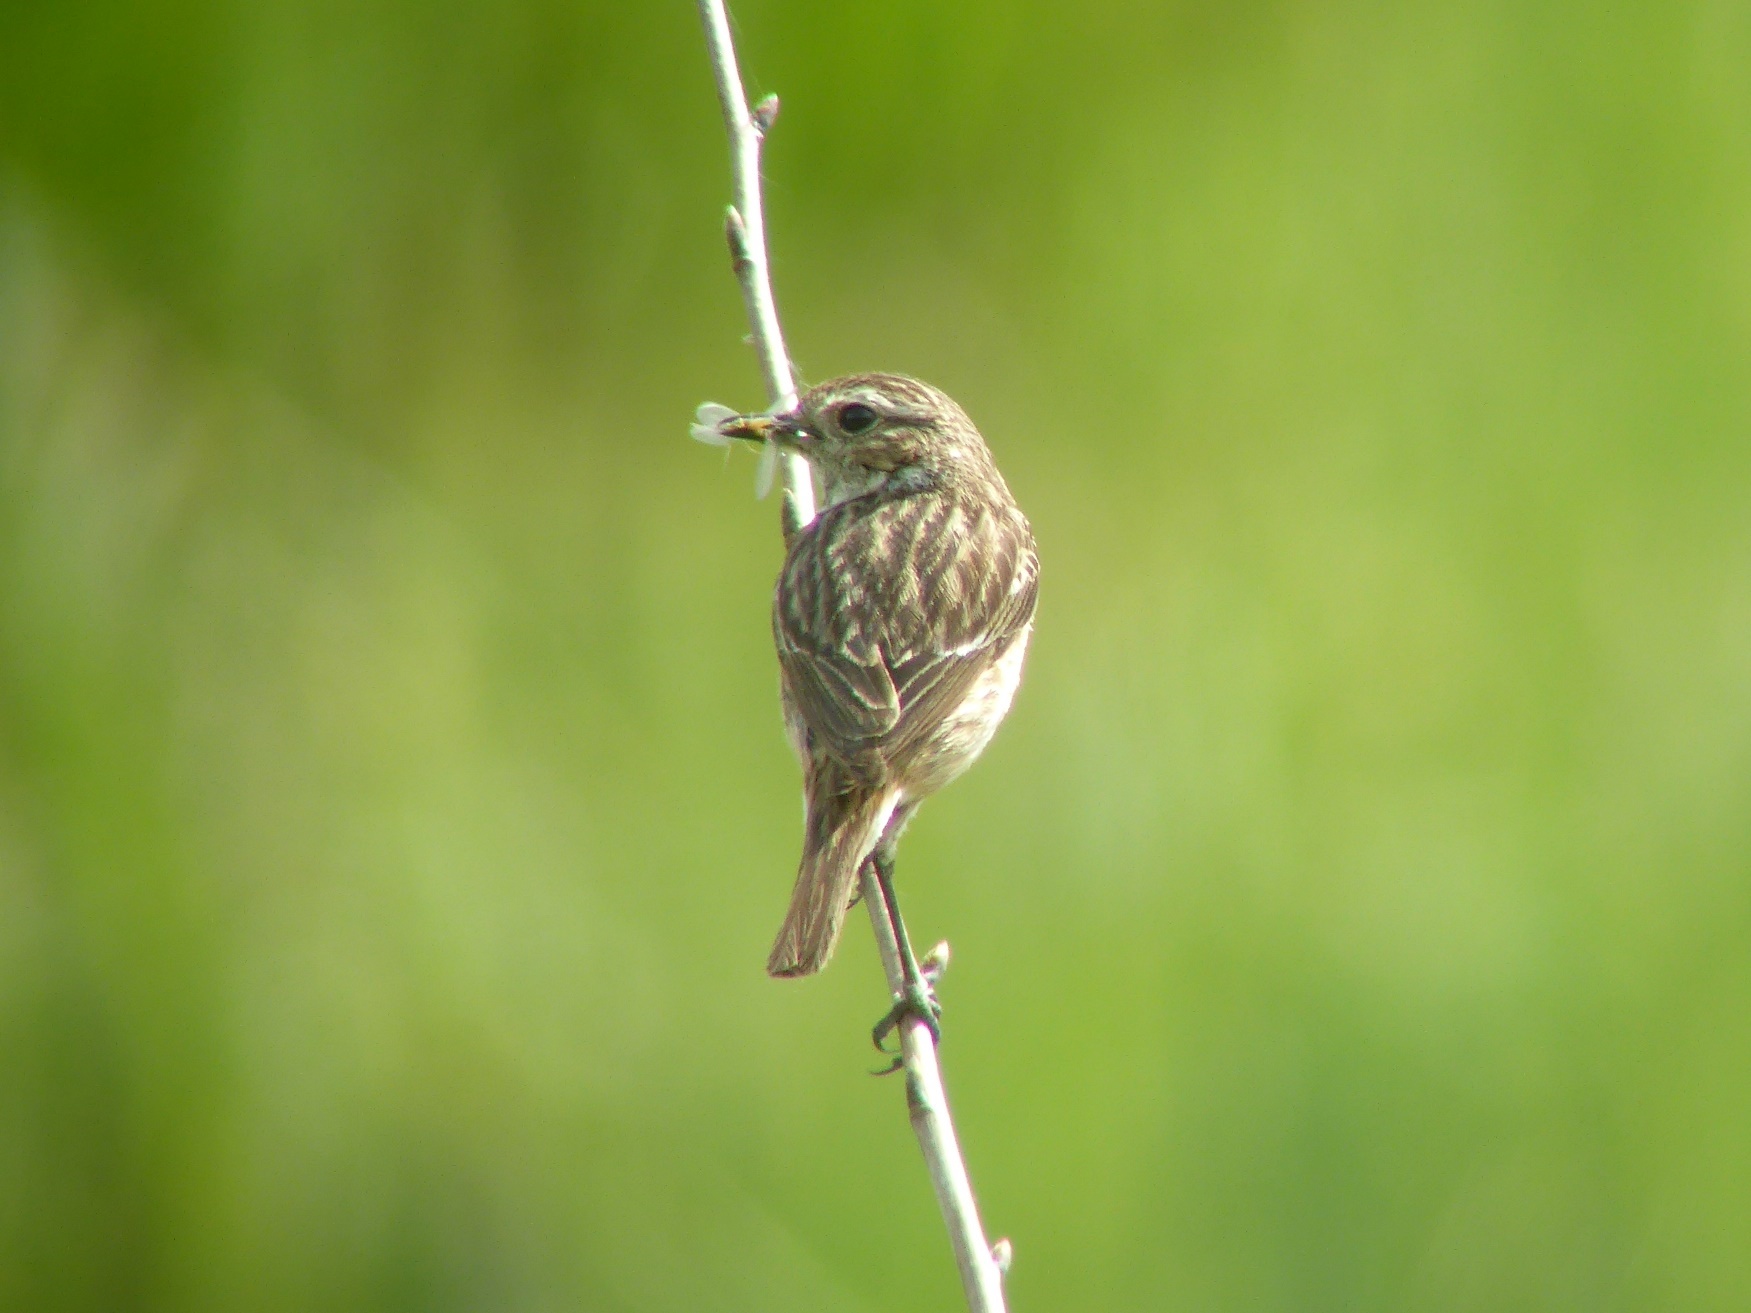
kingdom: Animalia
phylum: Chordata
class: Aves
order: Passeriformes
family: Muscicapidae
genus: Saxicola
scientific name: Saxicola rubicola
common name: European stonechat
